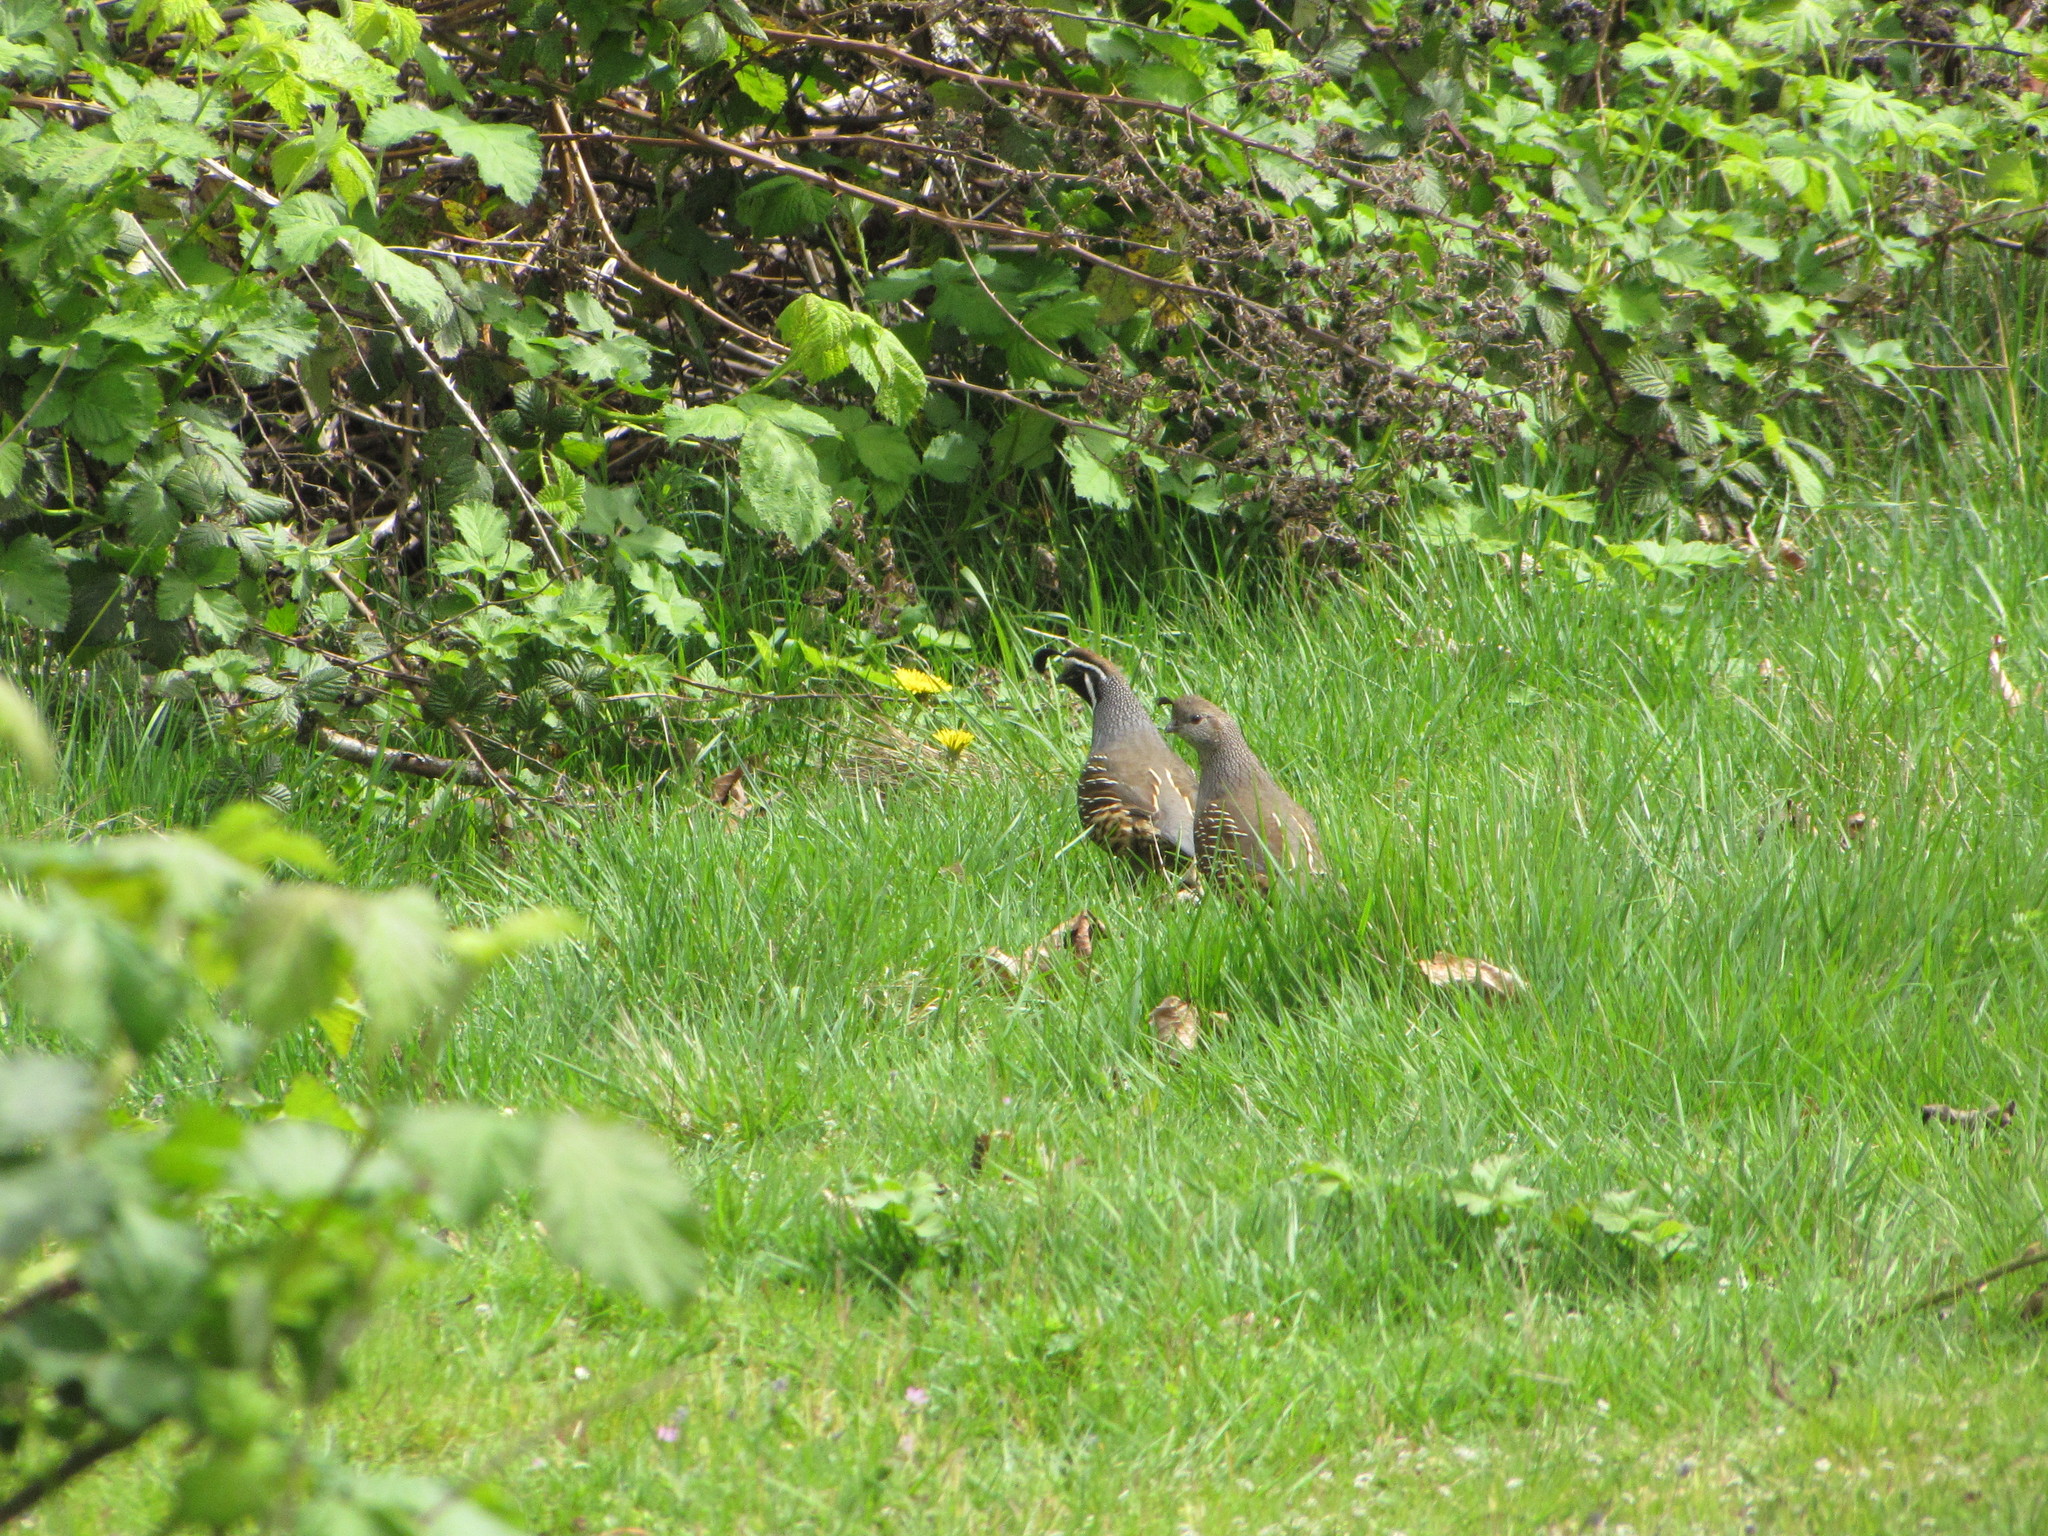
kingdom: Animalia
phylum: Chordata
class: Aves
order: Galliformes
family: Odontophoridae
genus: Callipepla
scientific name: Callipepla californica
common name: California quail
